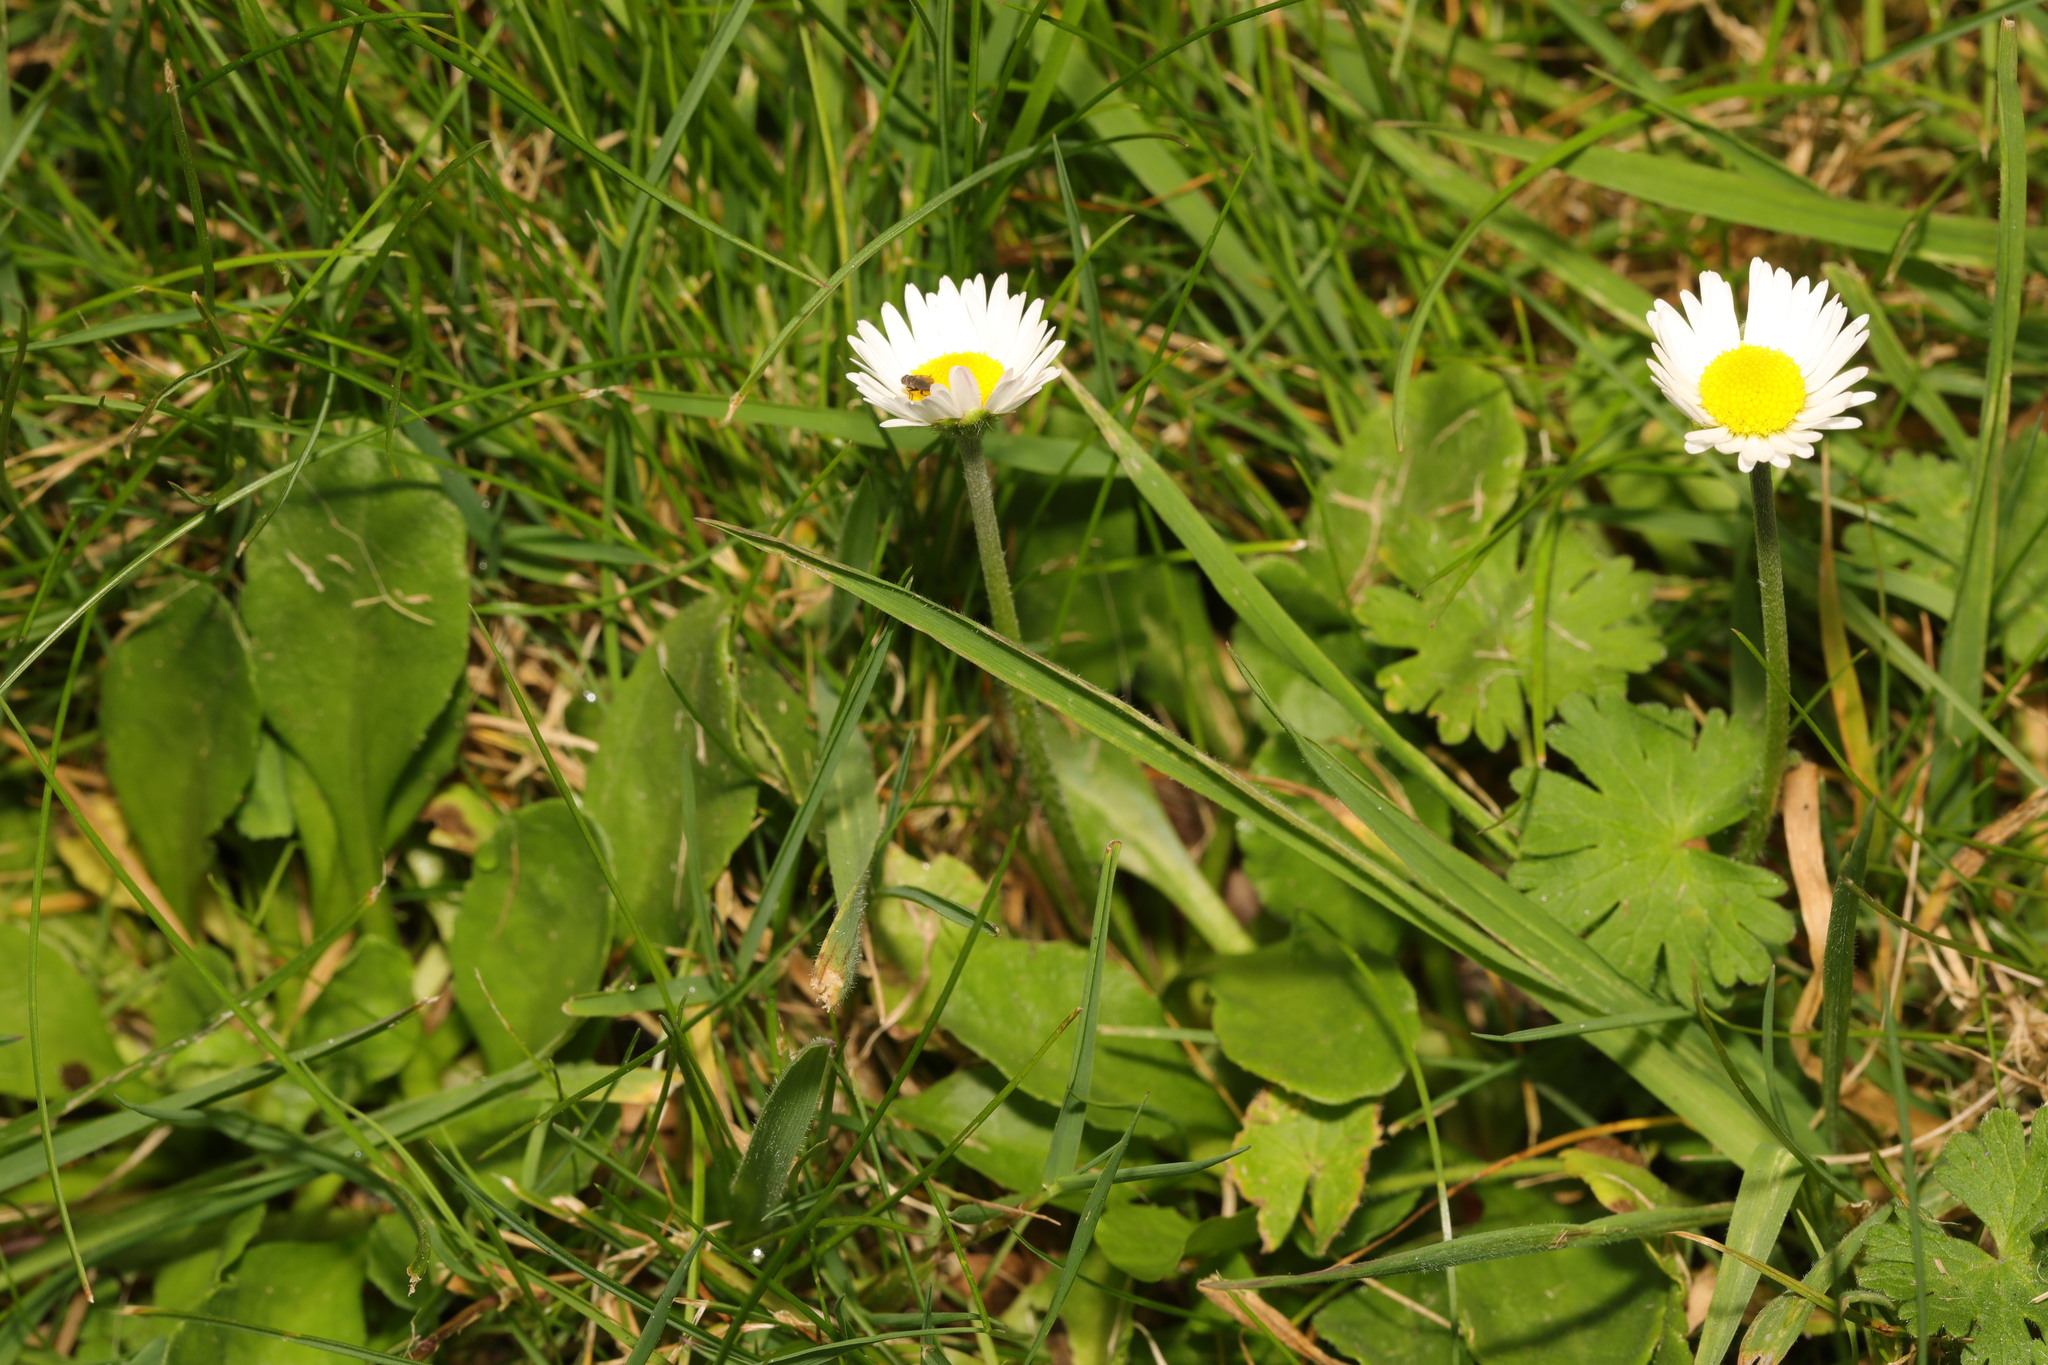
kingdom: Plantae
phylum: Tracheophyta
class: Magnoliopsida
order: Asterales
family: Asteraceae
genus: Bellis
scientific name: Bellis perennis
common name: Lawndaisy
